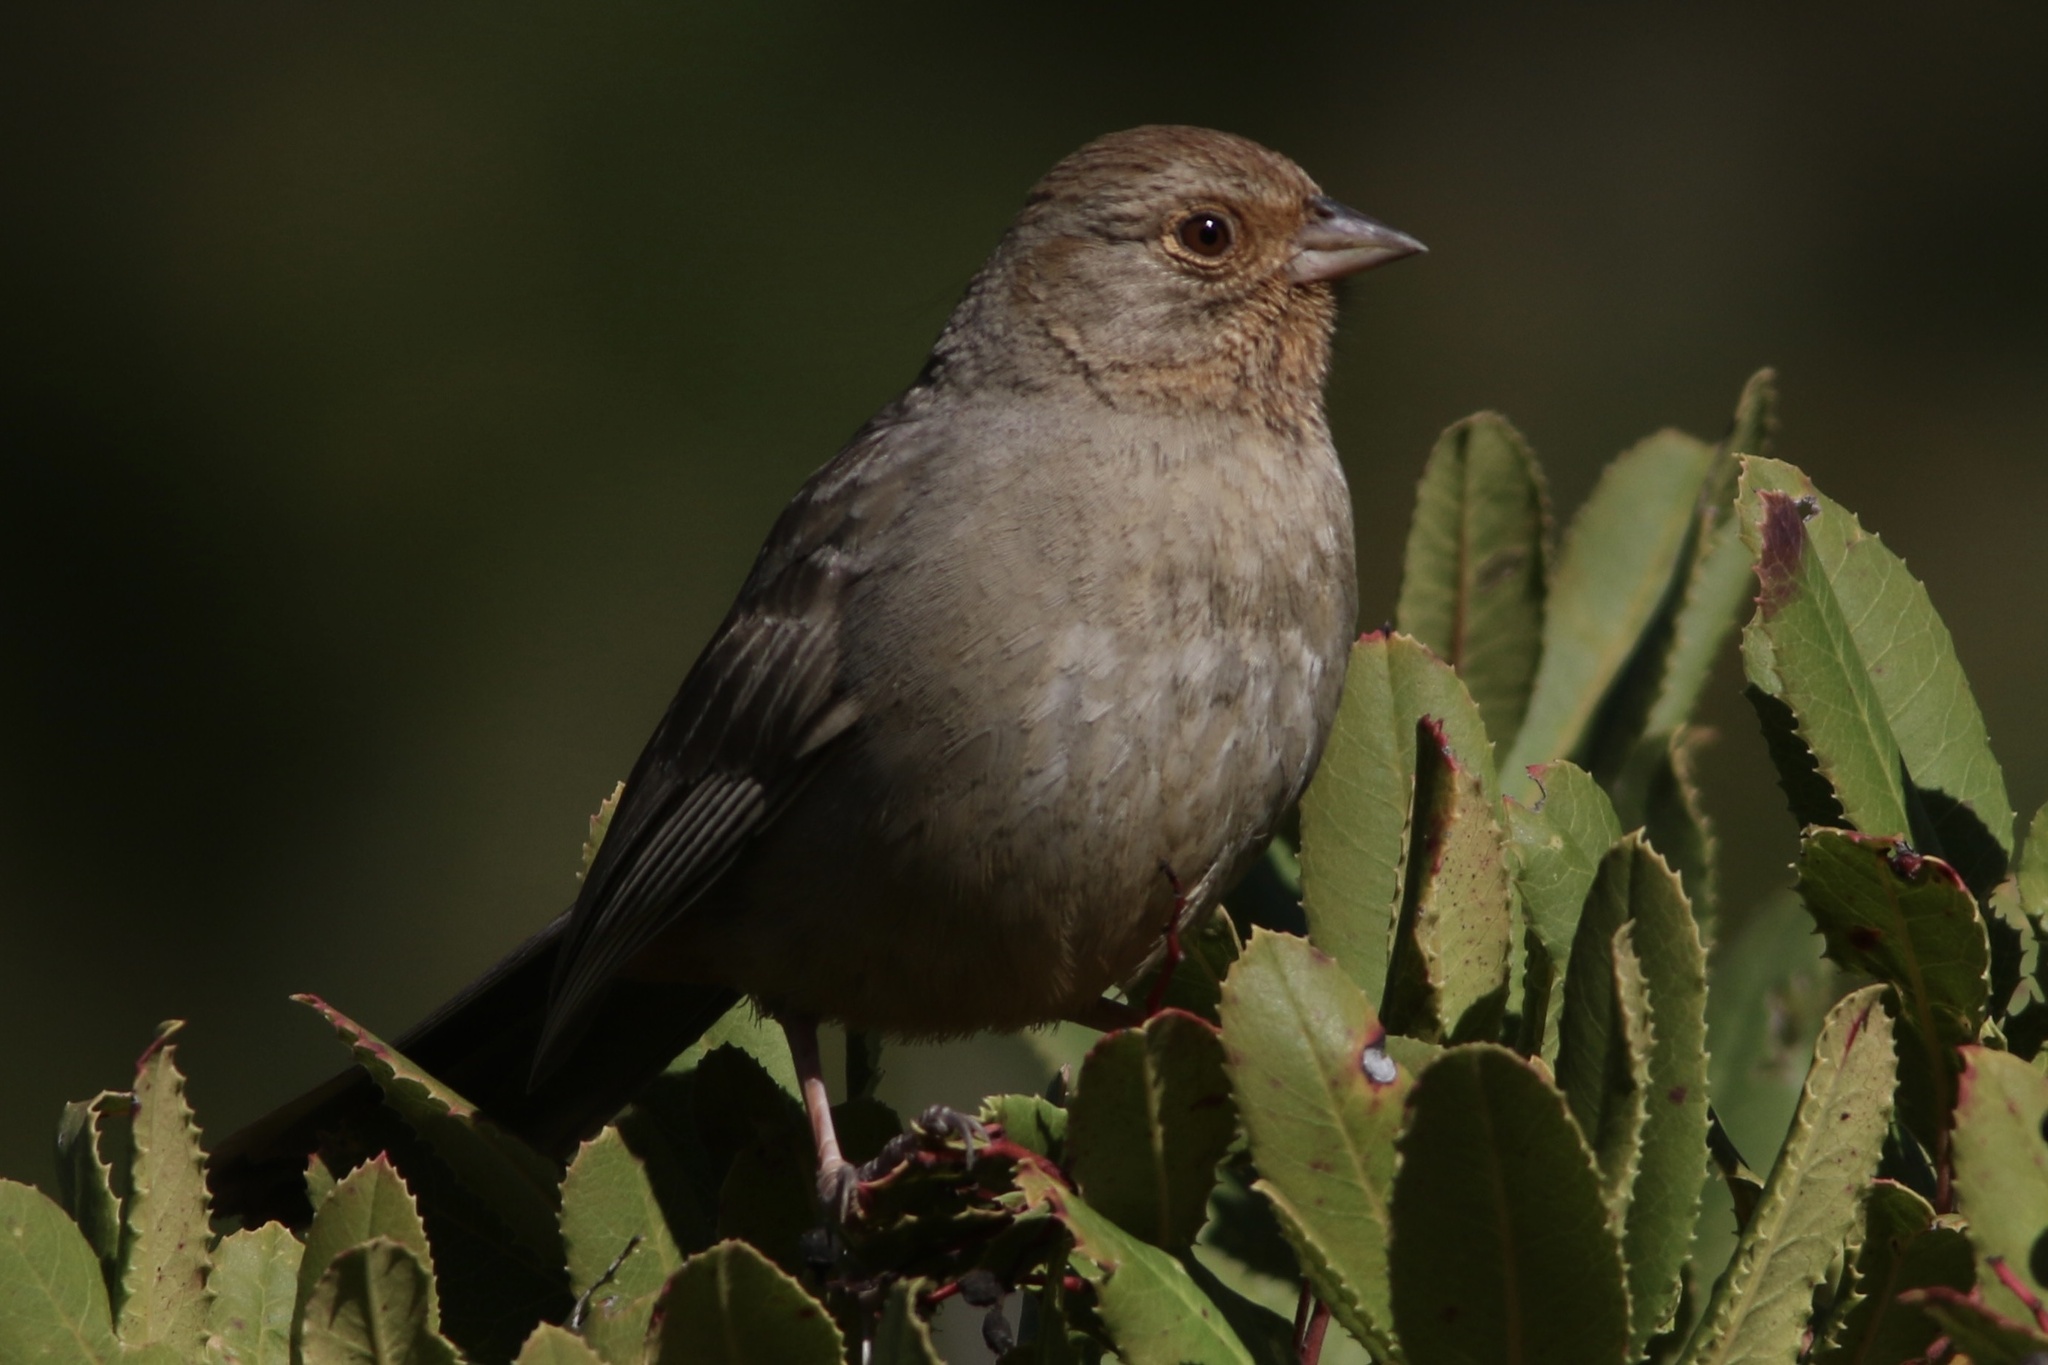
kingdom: Animalia
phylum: Chordata
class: Aves
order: Passeriformes
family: Passerellidae
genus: Melozone
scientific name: Melozone crissalis
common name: California towhee
